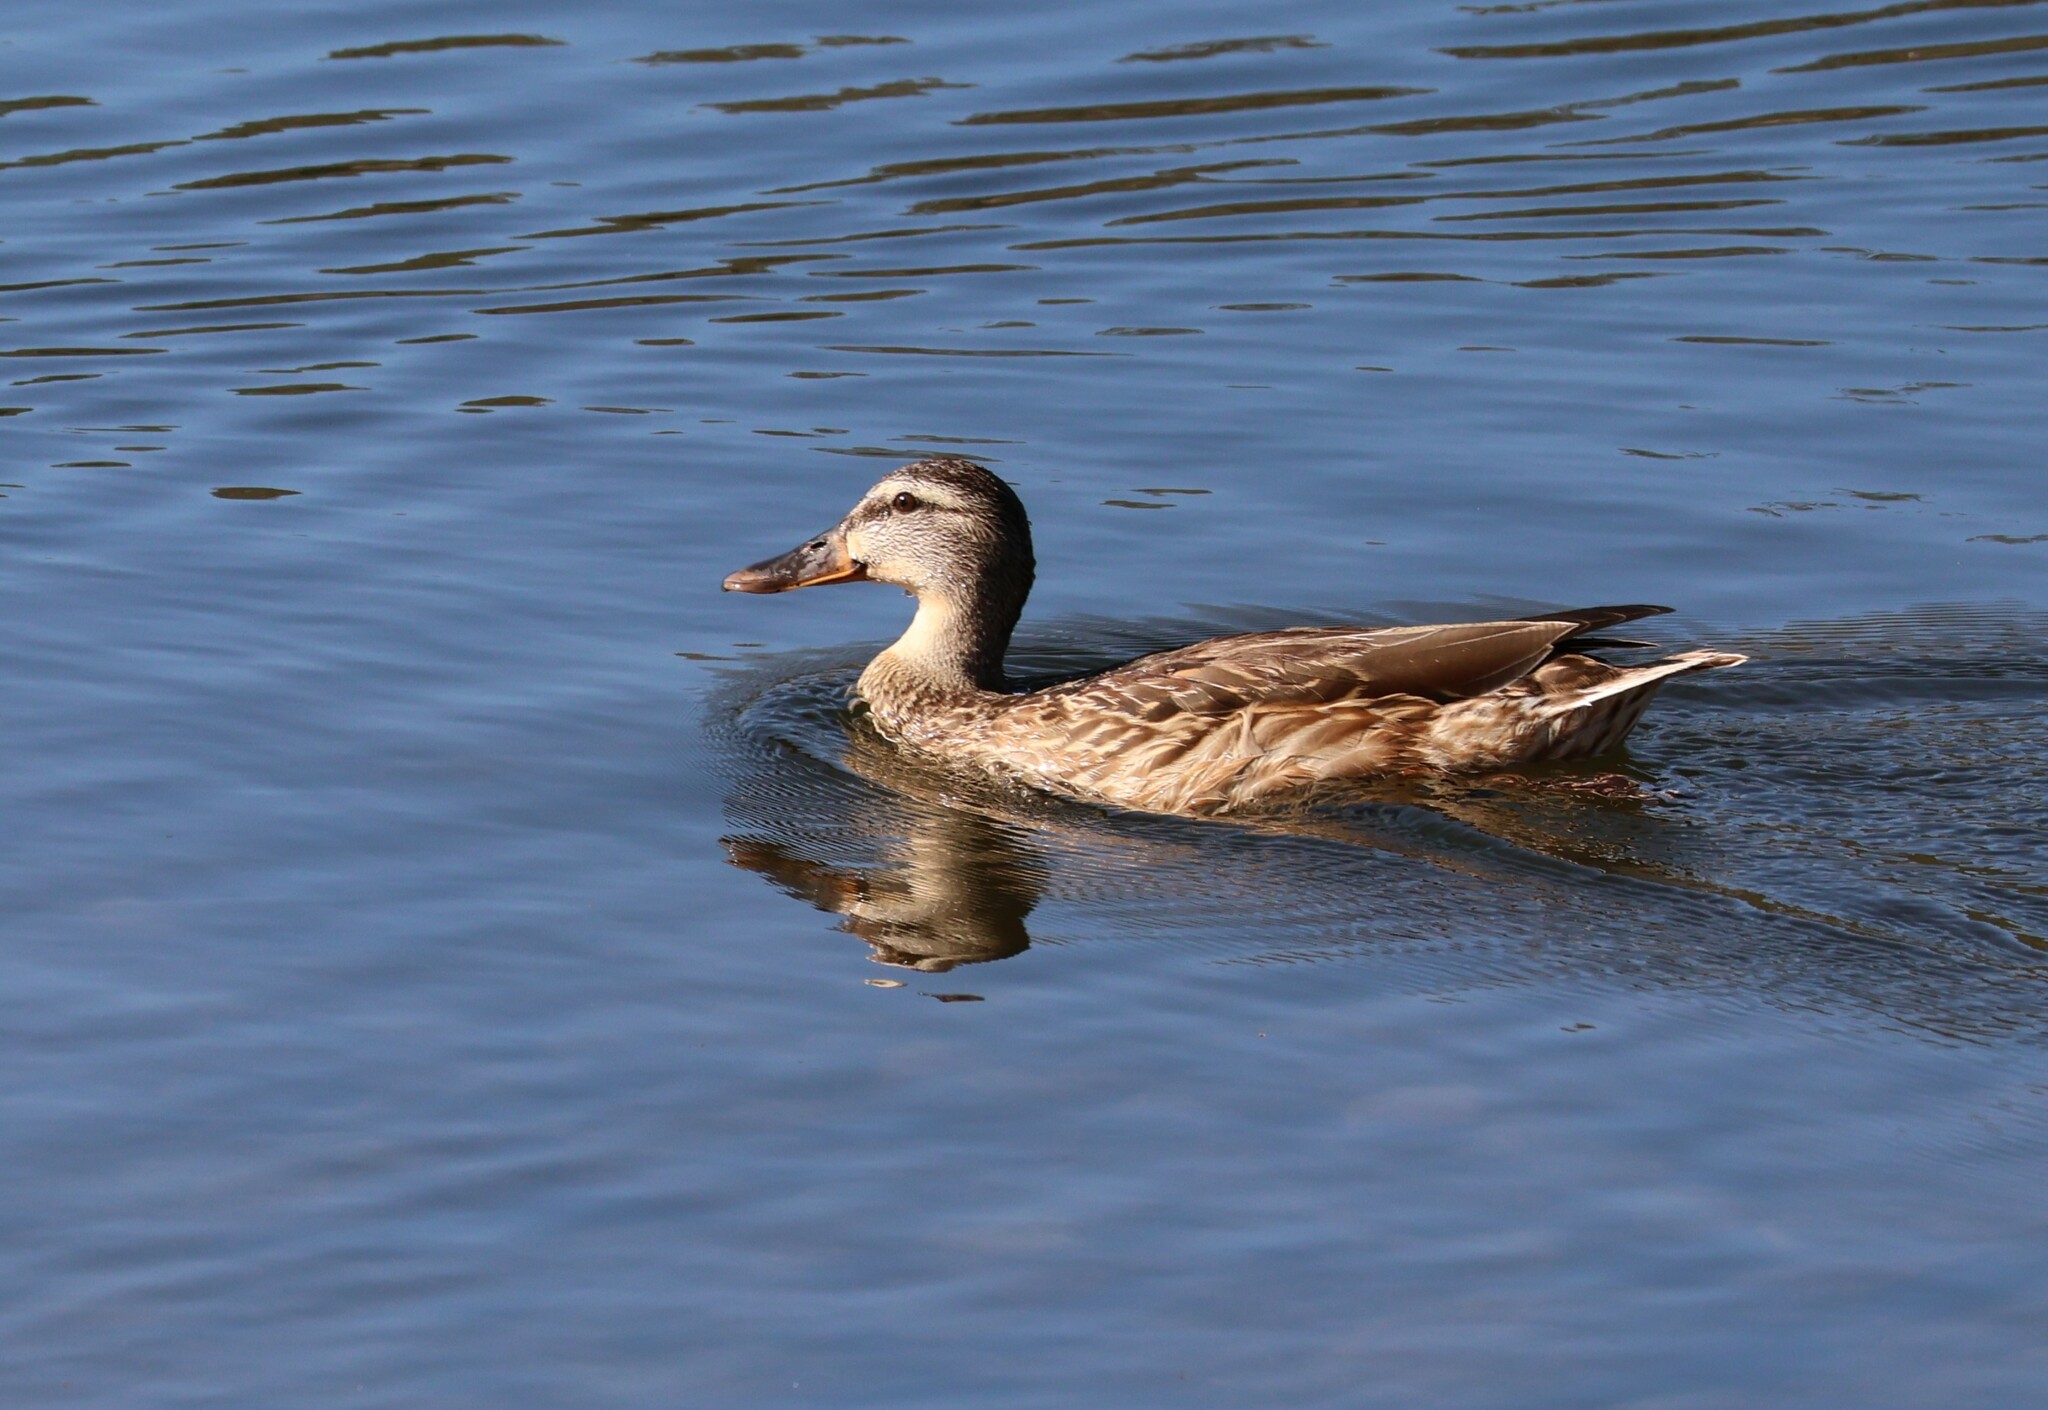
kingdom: Animalia
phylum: Chordata
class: Aves
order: Anseriformes
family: Anatidae
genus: Anas
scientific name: Anas platyrhynchos
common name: Mallard
